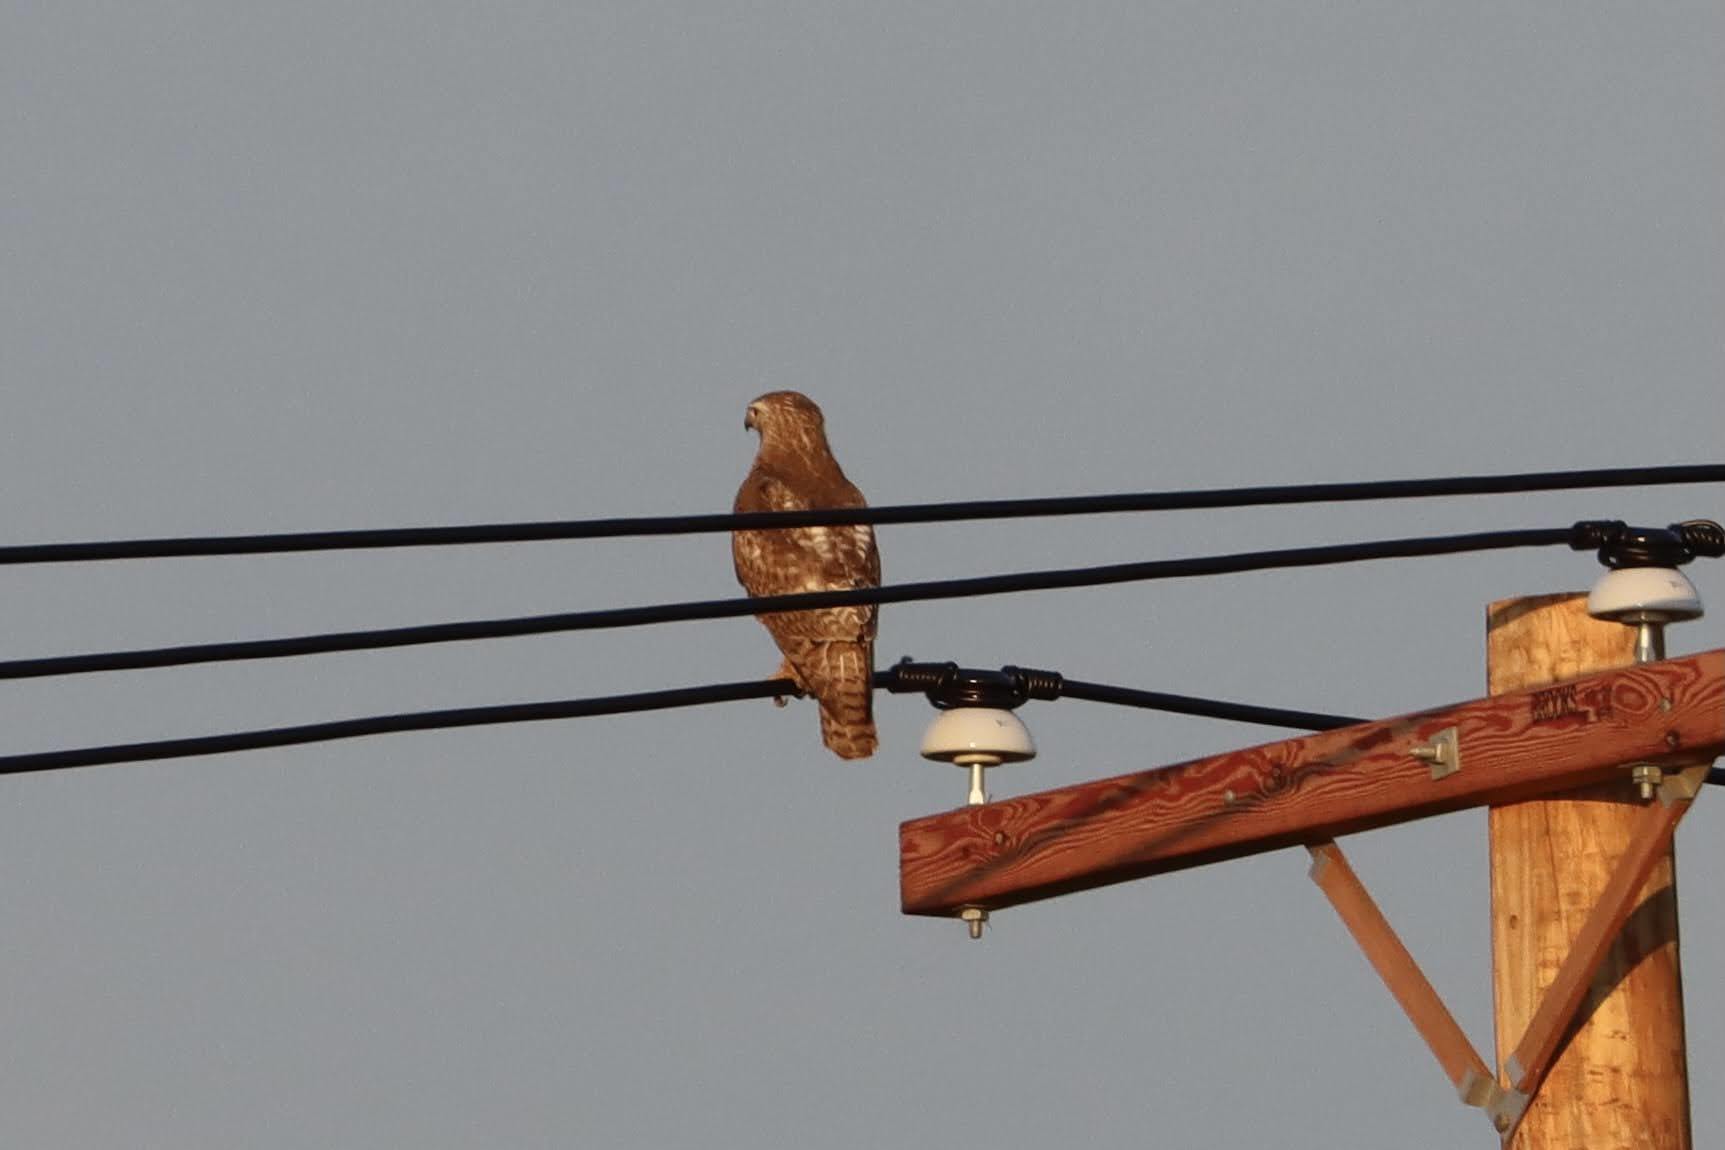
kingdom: Animalia
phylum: Chordata
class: Aves
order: Accipitriformes
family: Accipitridae
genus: Buteo
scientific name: Buteo jamaicensis
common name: Red-tailed hawk
